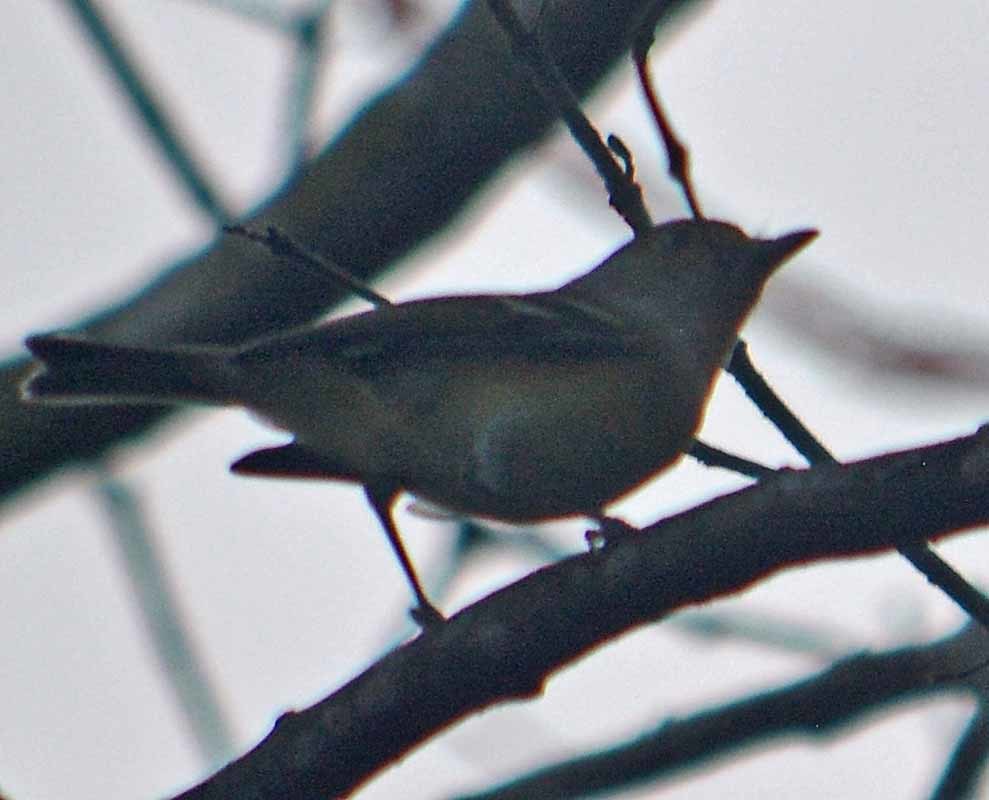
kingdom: Animalia
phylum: Chordata
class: Aves
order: Passeriformes
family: Vireonidae
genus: Vireo
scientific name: Vireo griseus
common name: White-eyed vireo
